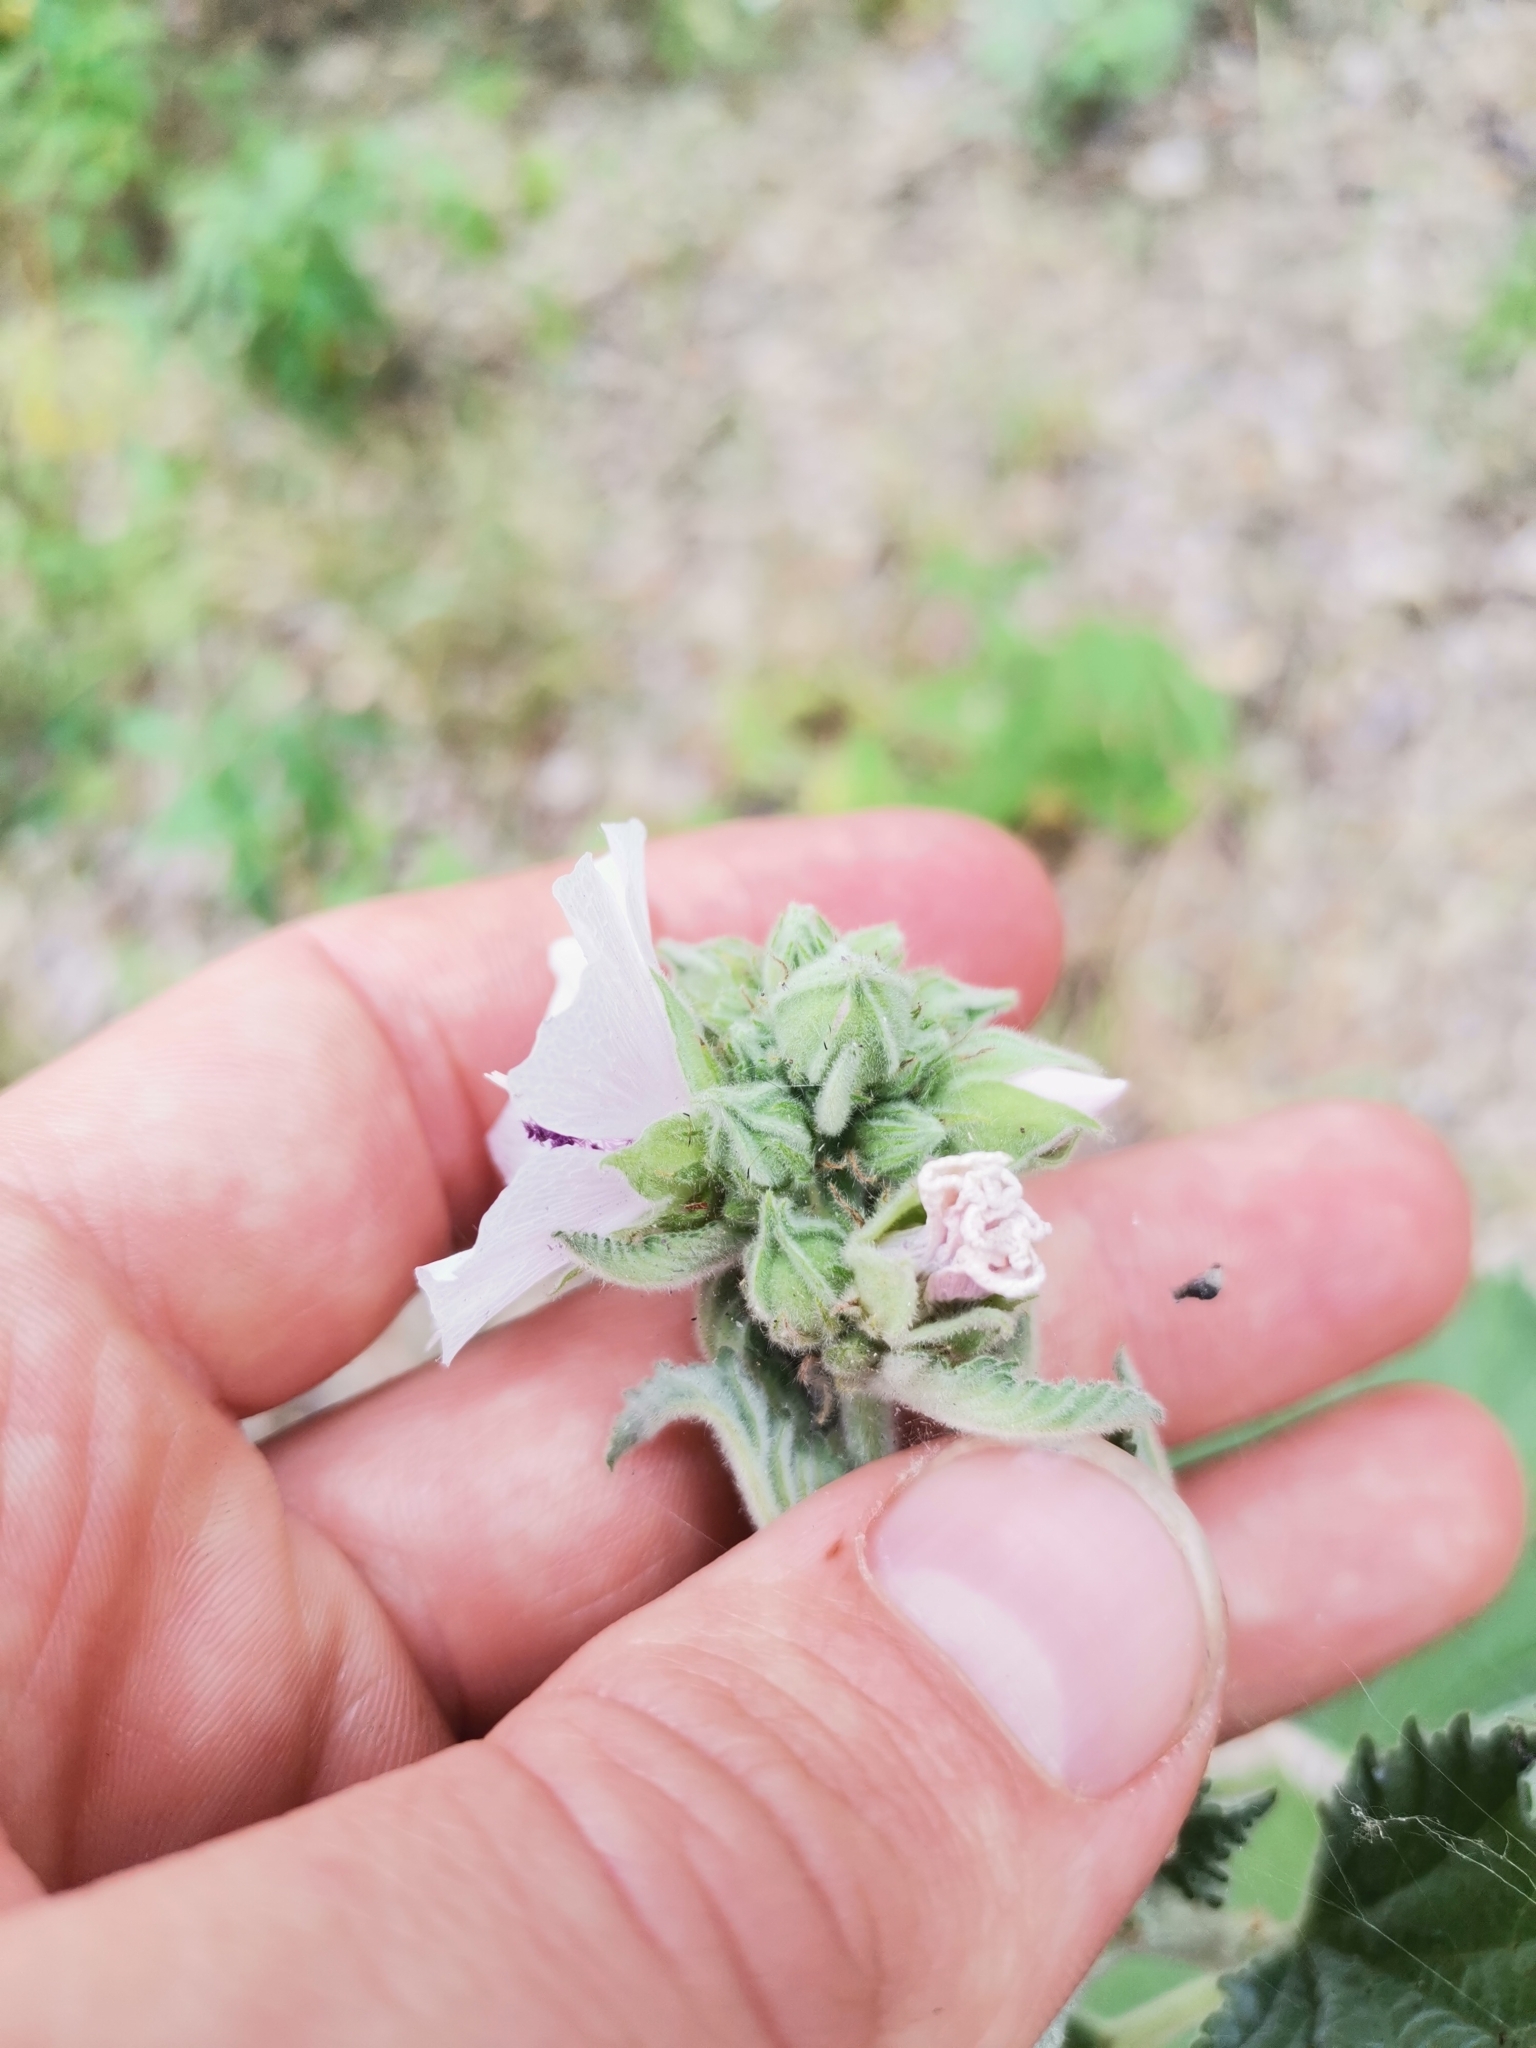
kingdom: Plantae
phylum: Tracheophyta
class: Magnoliopsida
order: Malvales
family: Malvaceae
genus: Althaea
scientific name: Althaea officinalis
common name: Marsh-mallow
